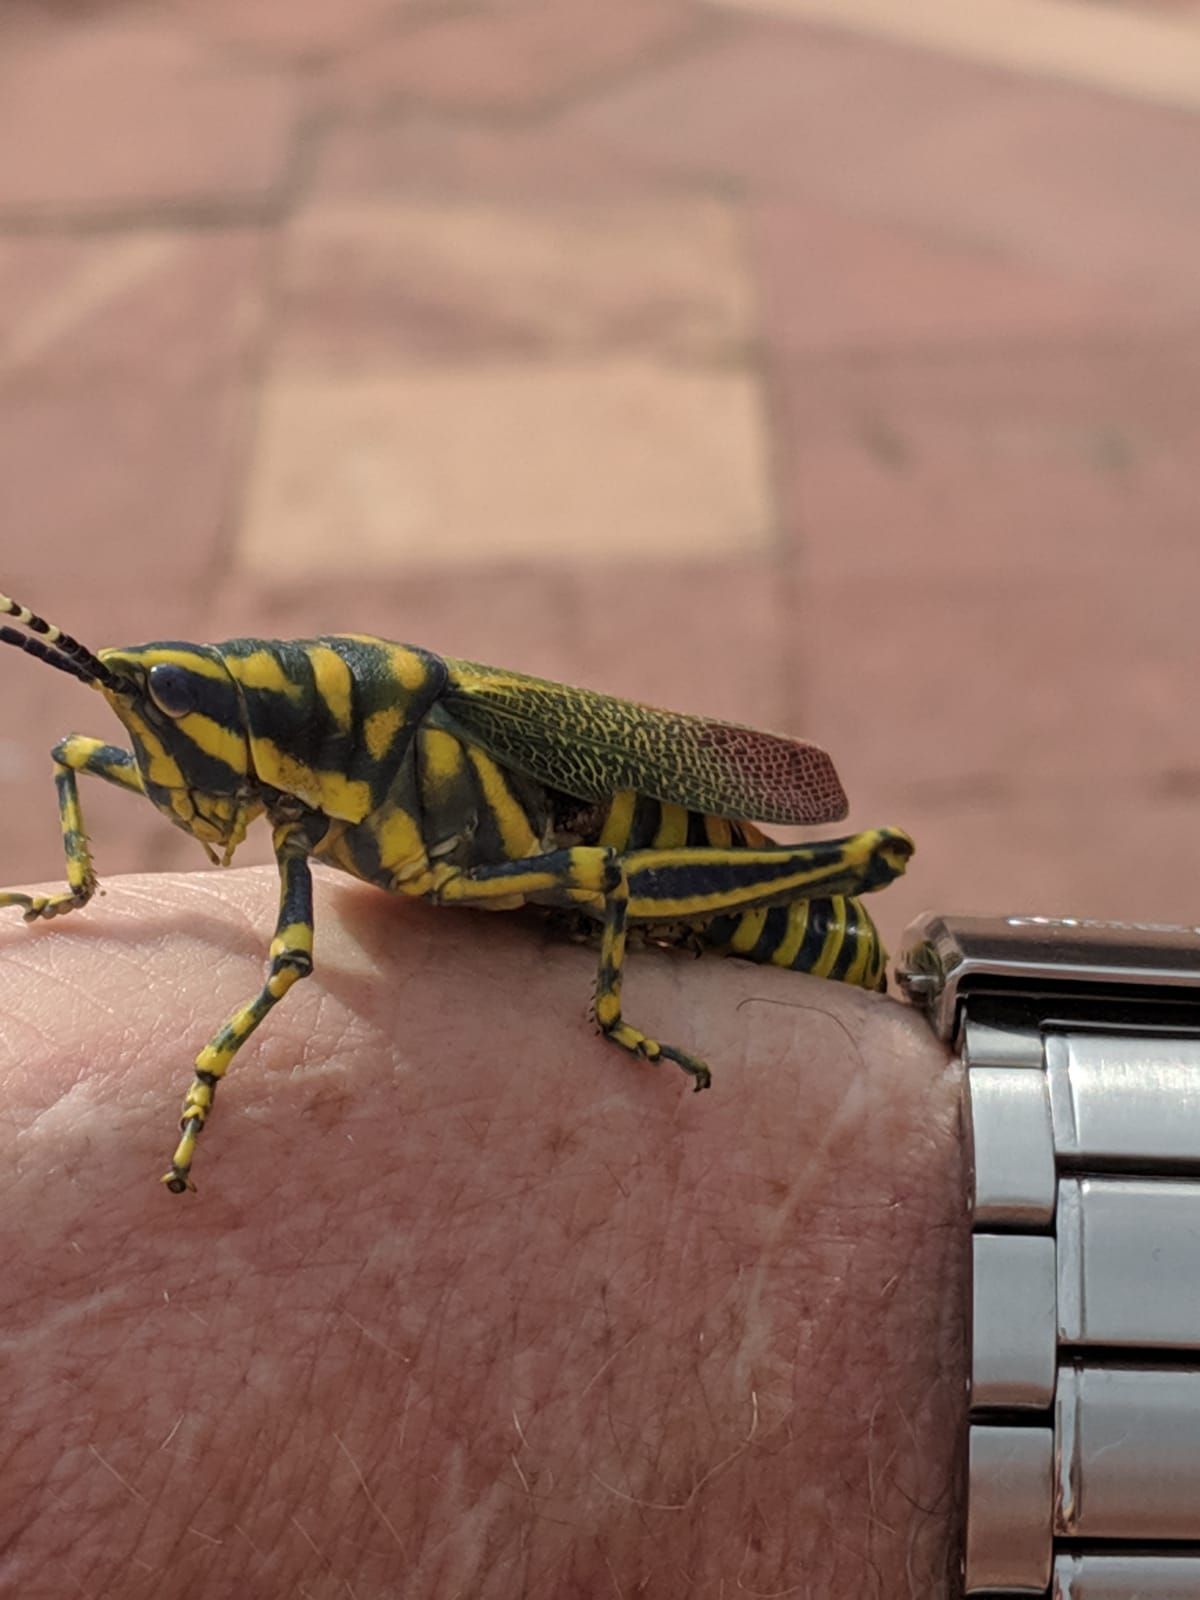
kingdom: Animalia
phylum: Arthropoda
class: Insecta
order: Orthoptera
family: Pyrgomorphidae
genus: Poekilocerus
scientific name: Poekilocerus pictus
